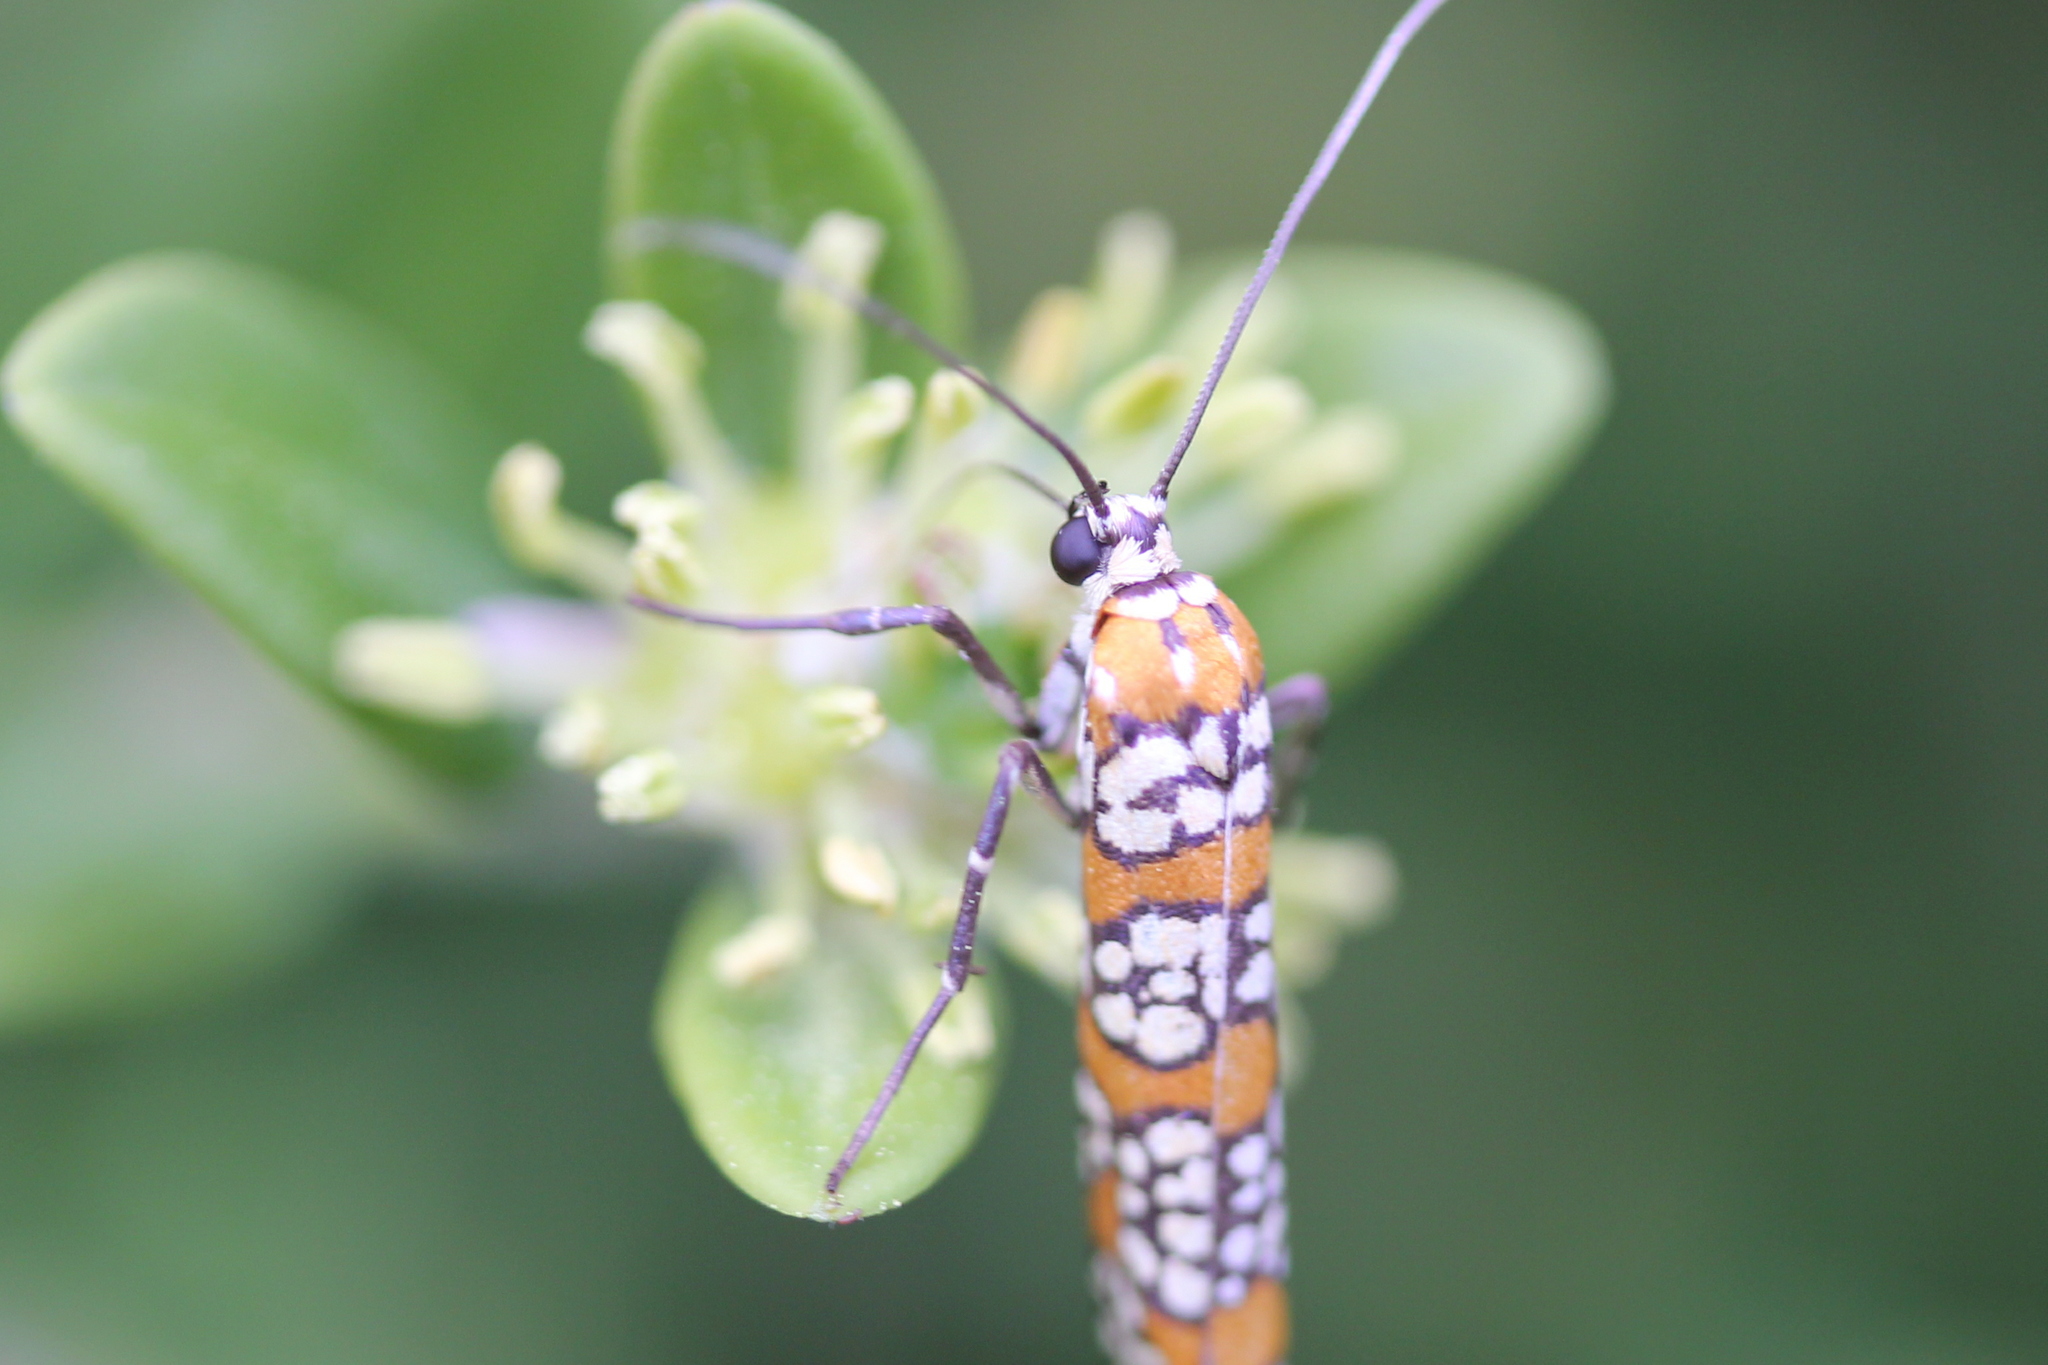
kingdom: Animalia
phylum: Arthropoda
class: Insecta
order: Lepidoptera
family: Attevidae
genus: Atteva
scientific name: Atteva punctella
